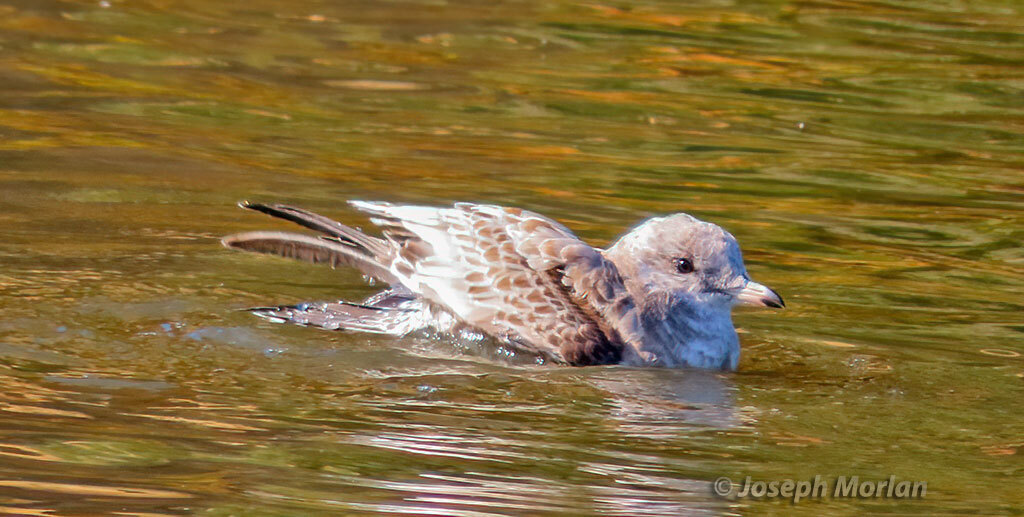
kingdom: Animalia
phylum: Chordata
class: Aves
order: Charadriiformes
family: Laridae
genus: Larus
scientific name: Larus brachyrhynchus
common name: Short-billed gull
